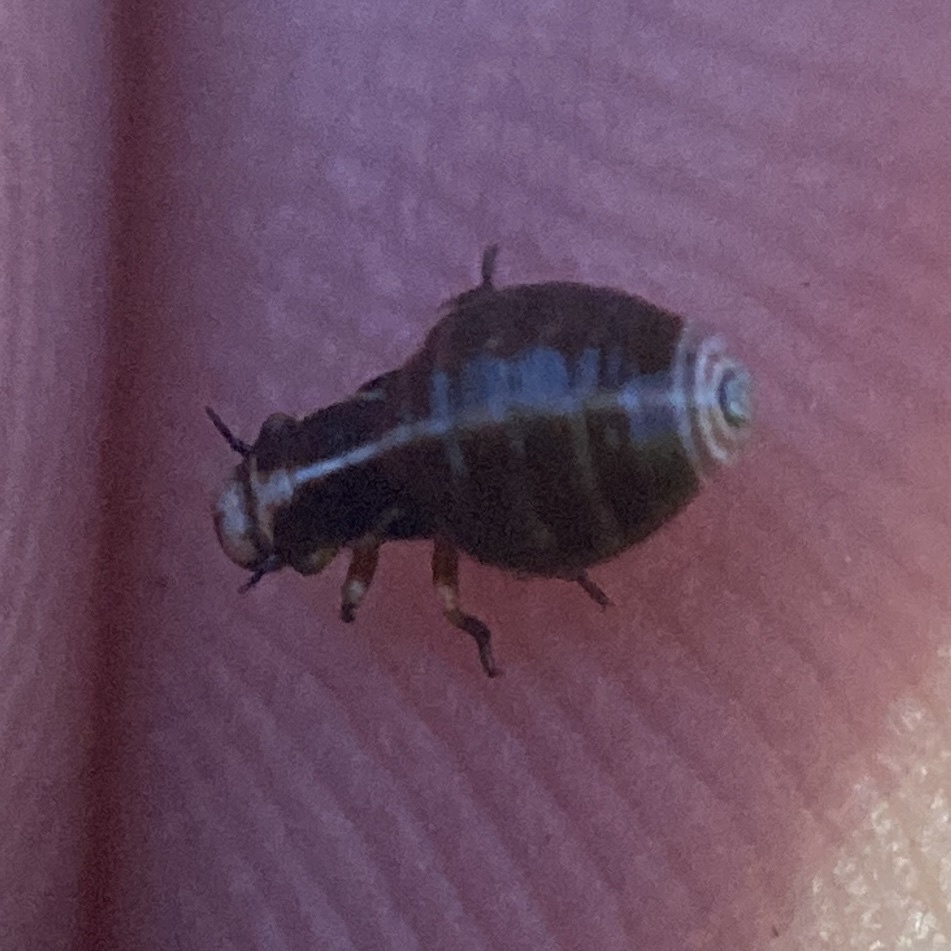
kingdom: Animalia
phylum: Arthropoda
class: Insecta
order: Hemiptera
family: Aphrophoridae
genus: Lepyronia
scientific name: Lepyronia gibbosa
